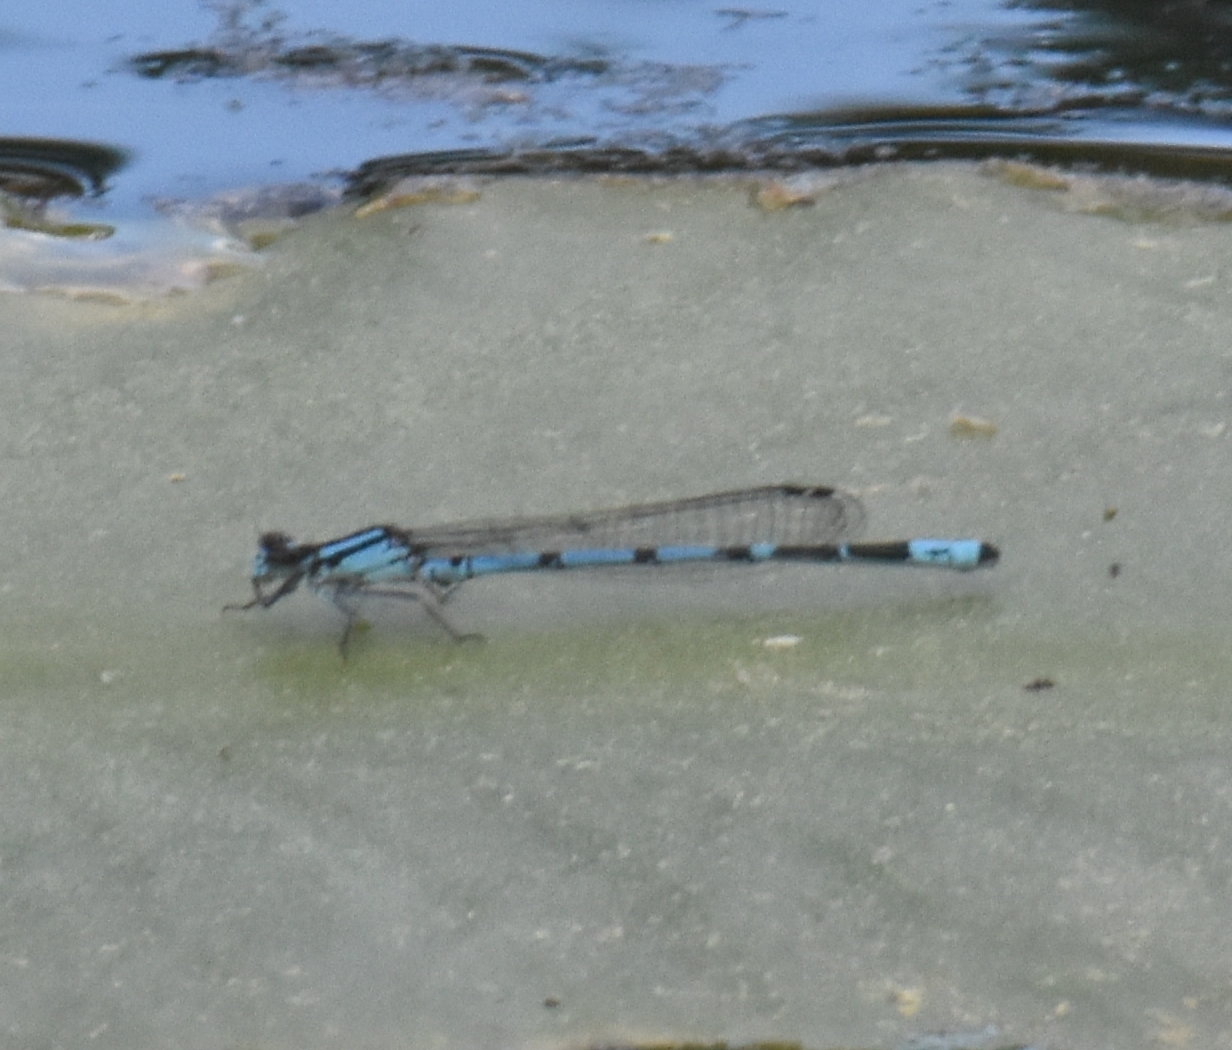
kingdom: Animalia
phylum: Arthropoda
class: Insecta
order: Odonata
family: Coenagrionidae
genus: Enallagma
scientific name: Enallagma laterale
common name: New england bluet
